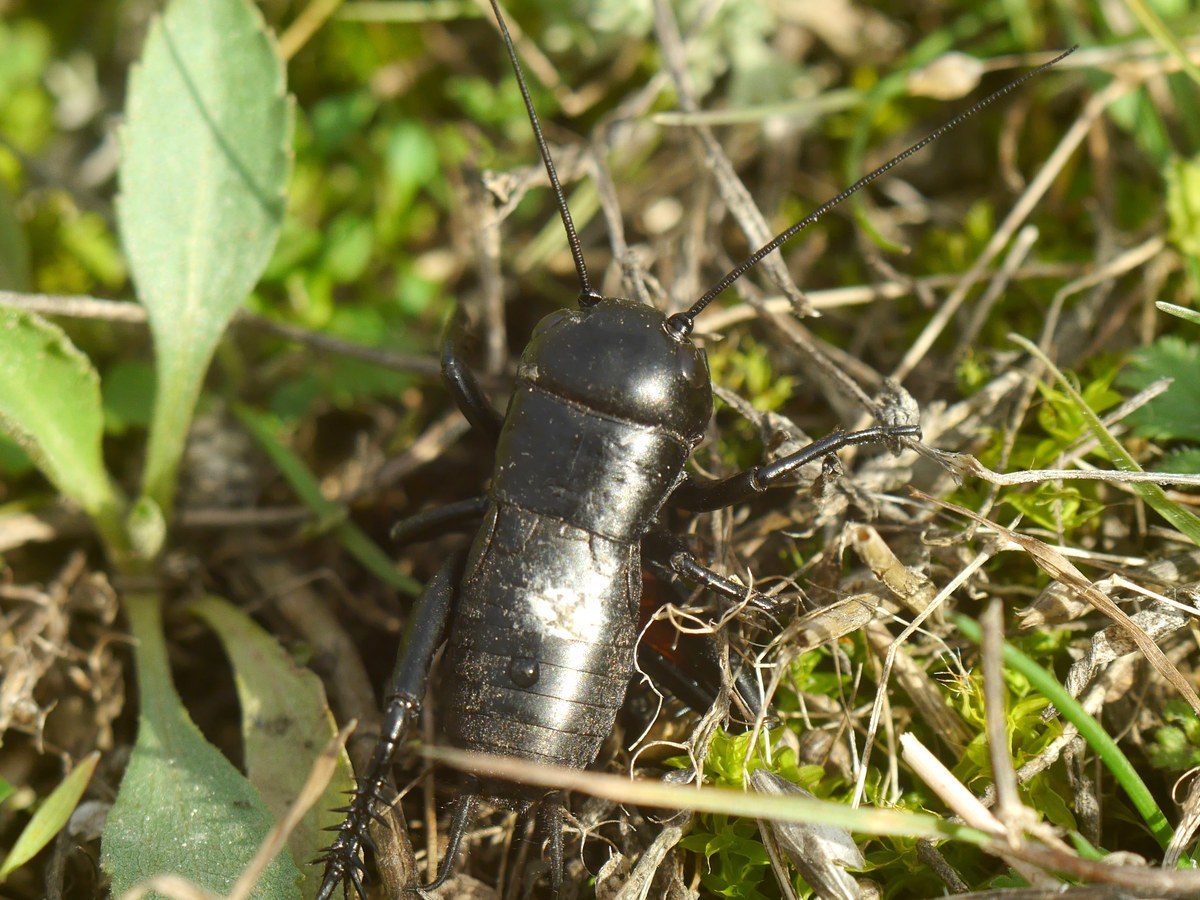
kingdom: Animalia
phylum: Arthropoda
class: Insecta
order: Orthoptera
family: Gryllidae
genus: Gryllus
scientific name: Gryllus campestris
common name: Field cricket
